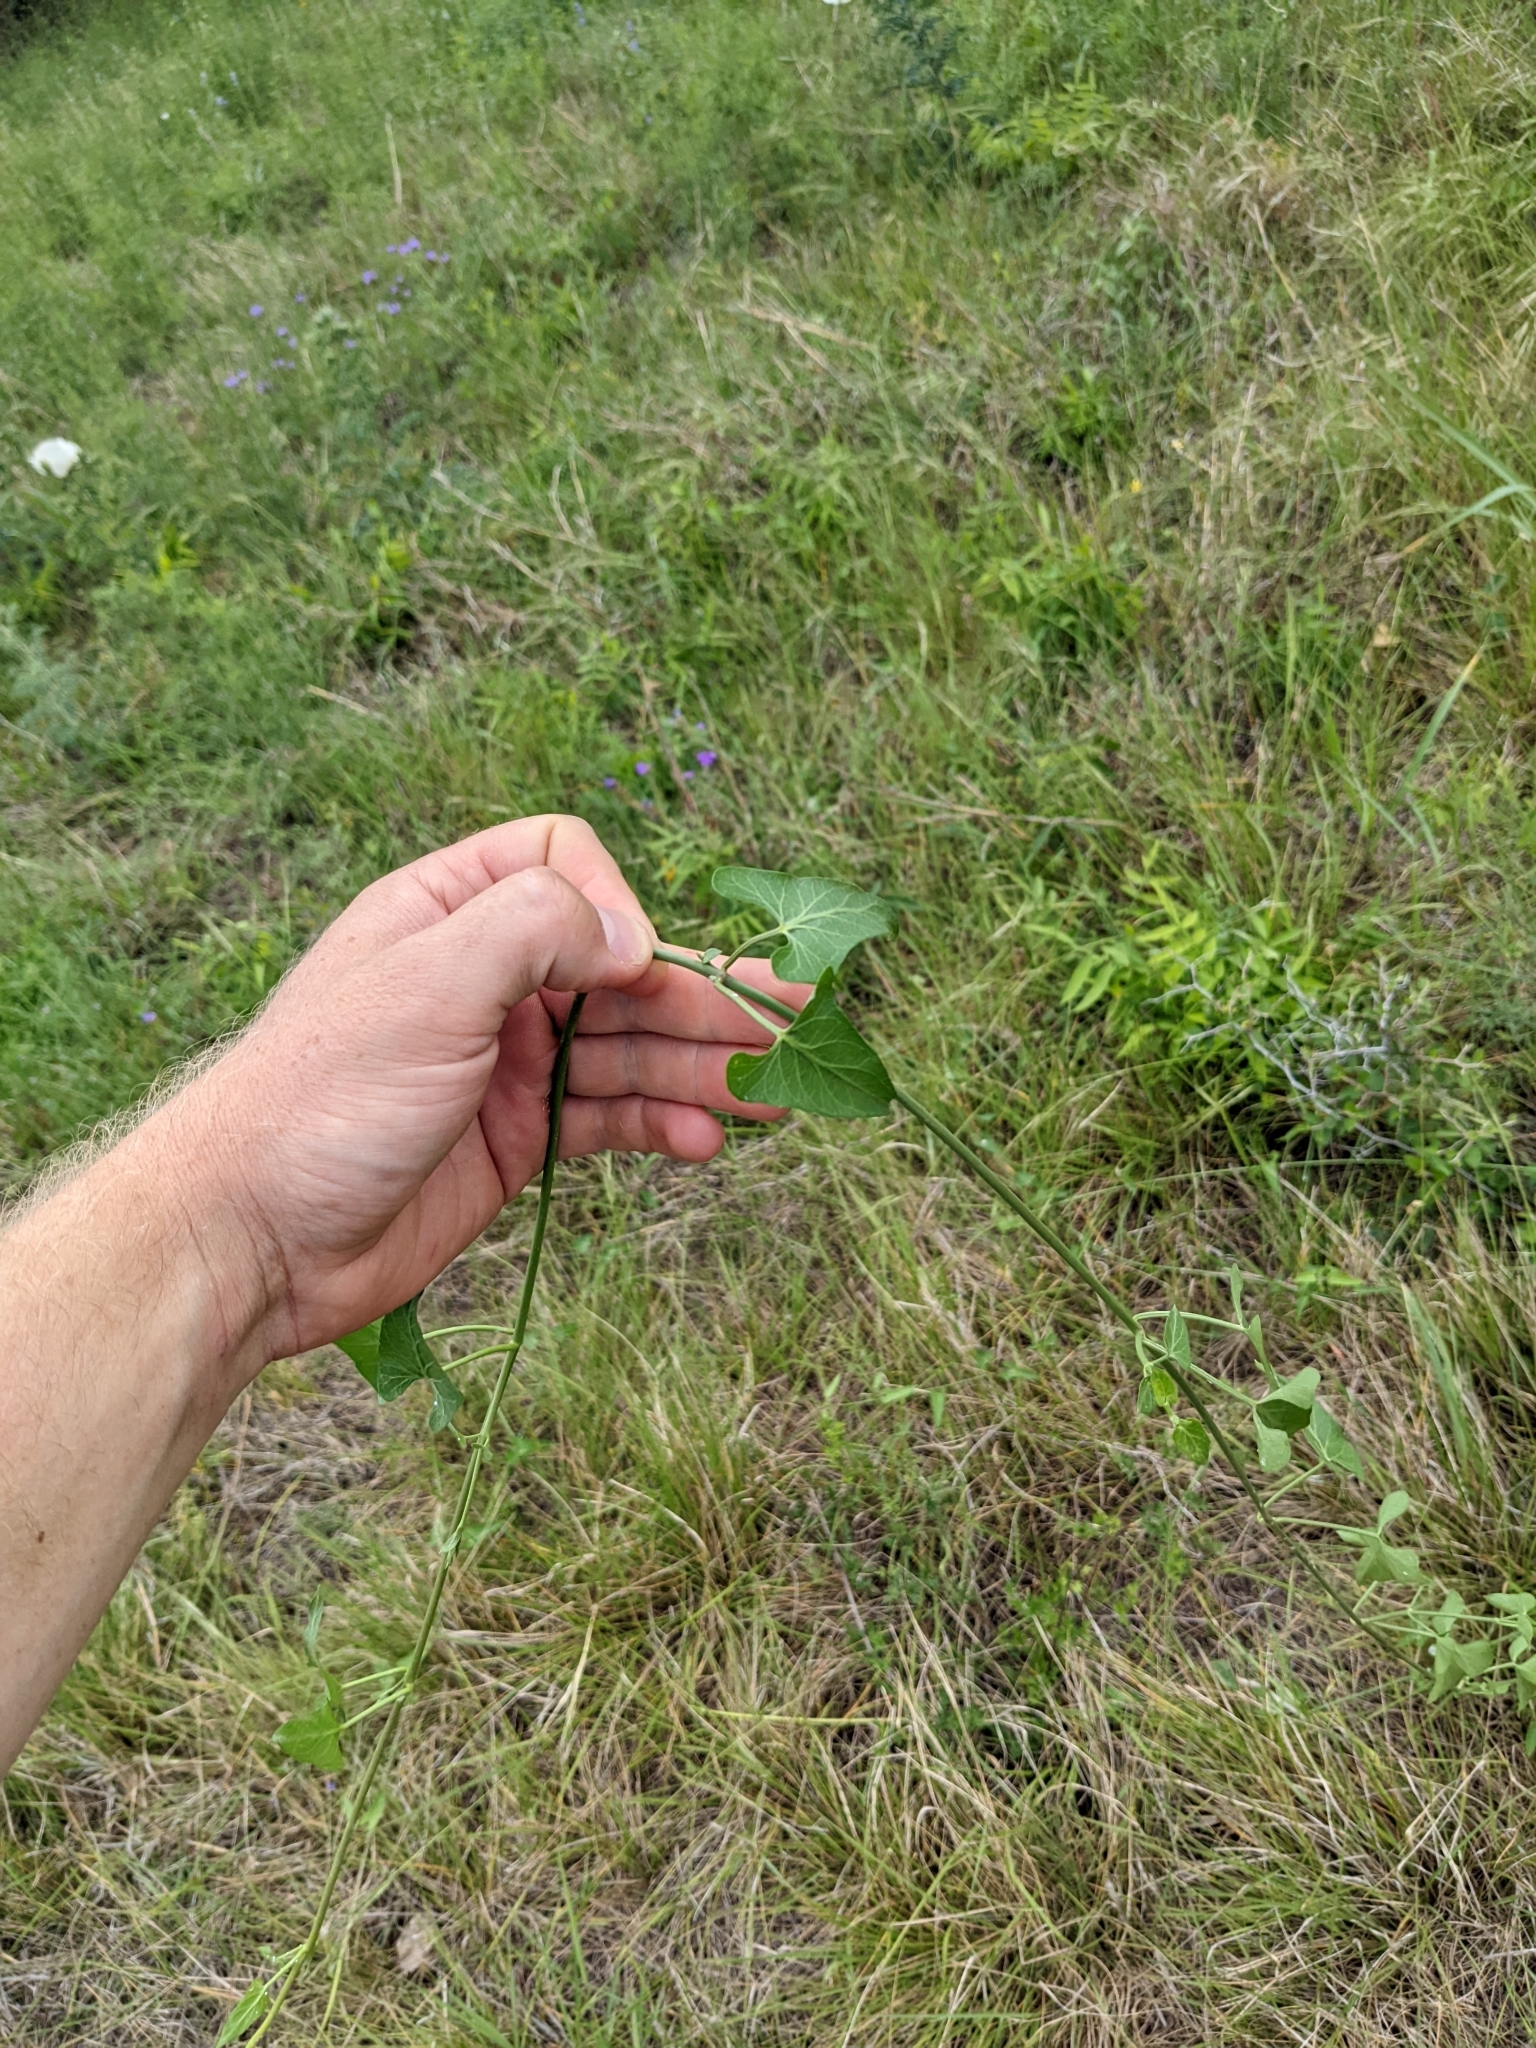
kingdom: Plantae
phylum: Tracheophyta
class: Magnoliopsida
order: Gentianales
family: Apocynaceae
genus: Funastrum
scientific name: Funastrum cynanchoides
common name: Climbing-milkweed
